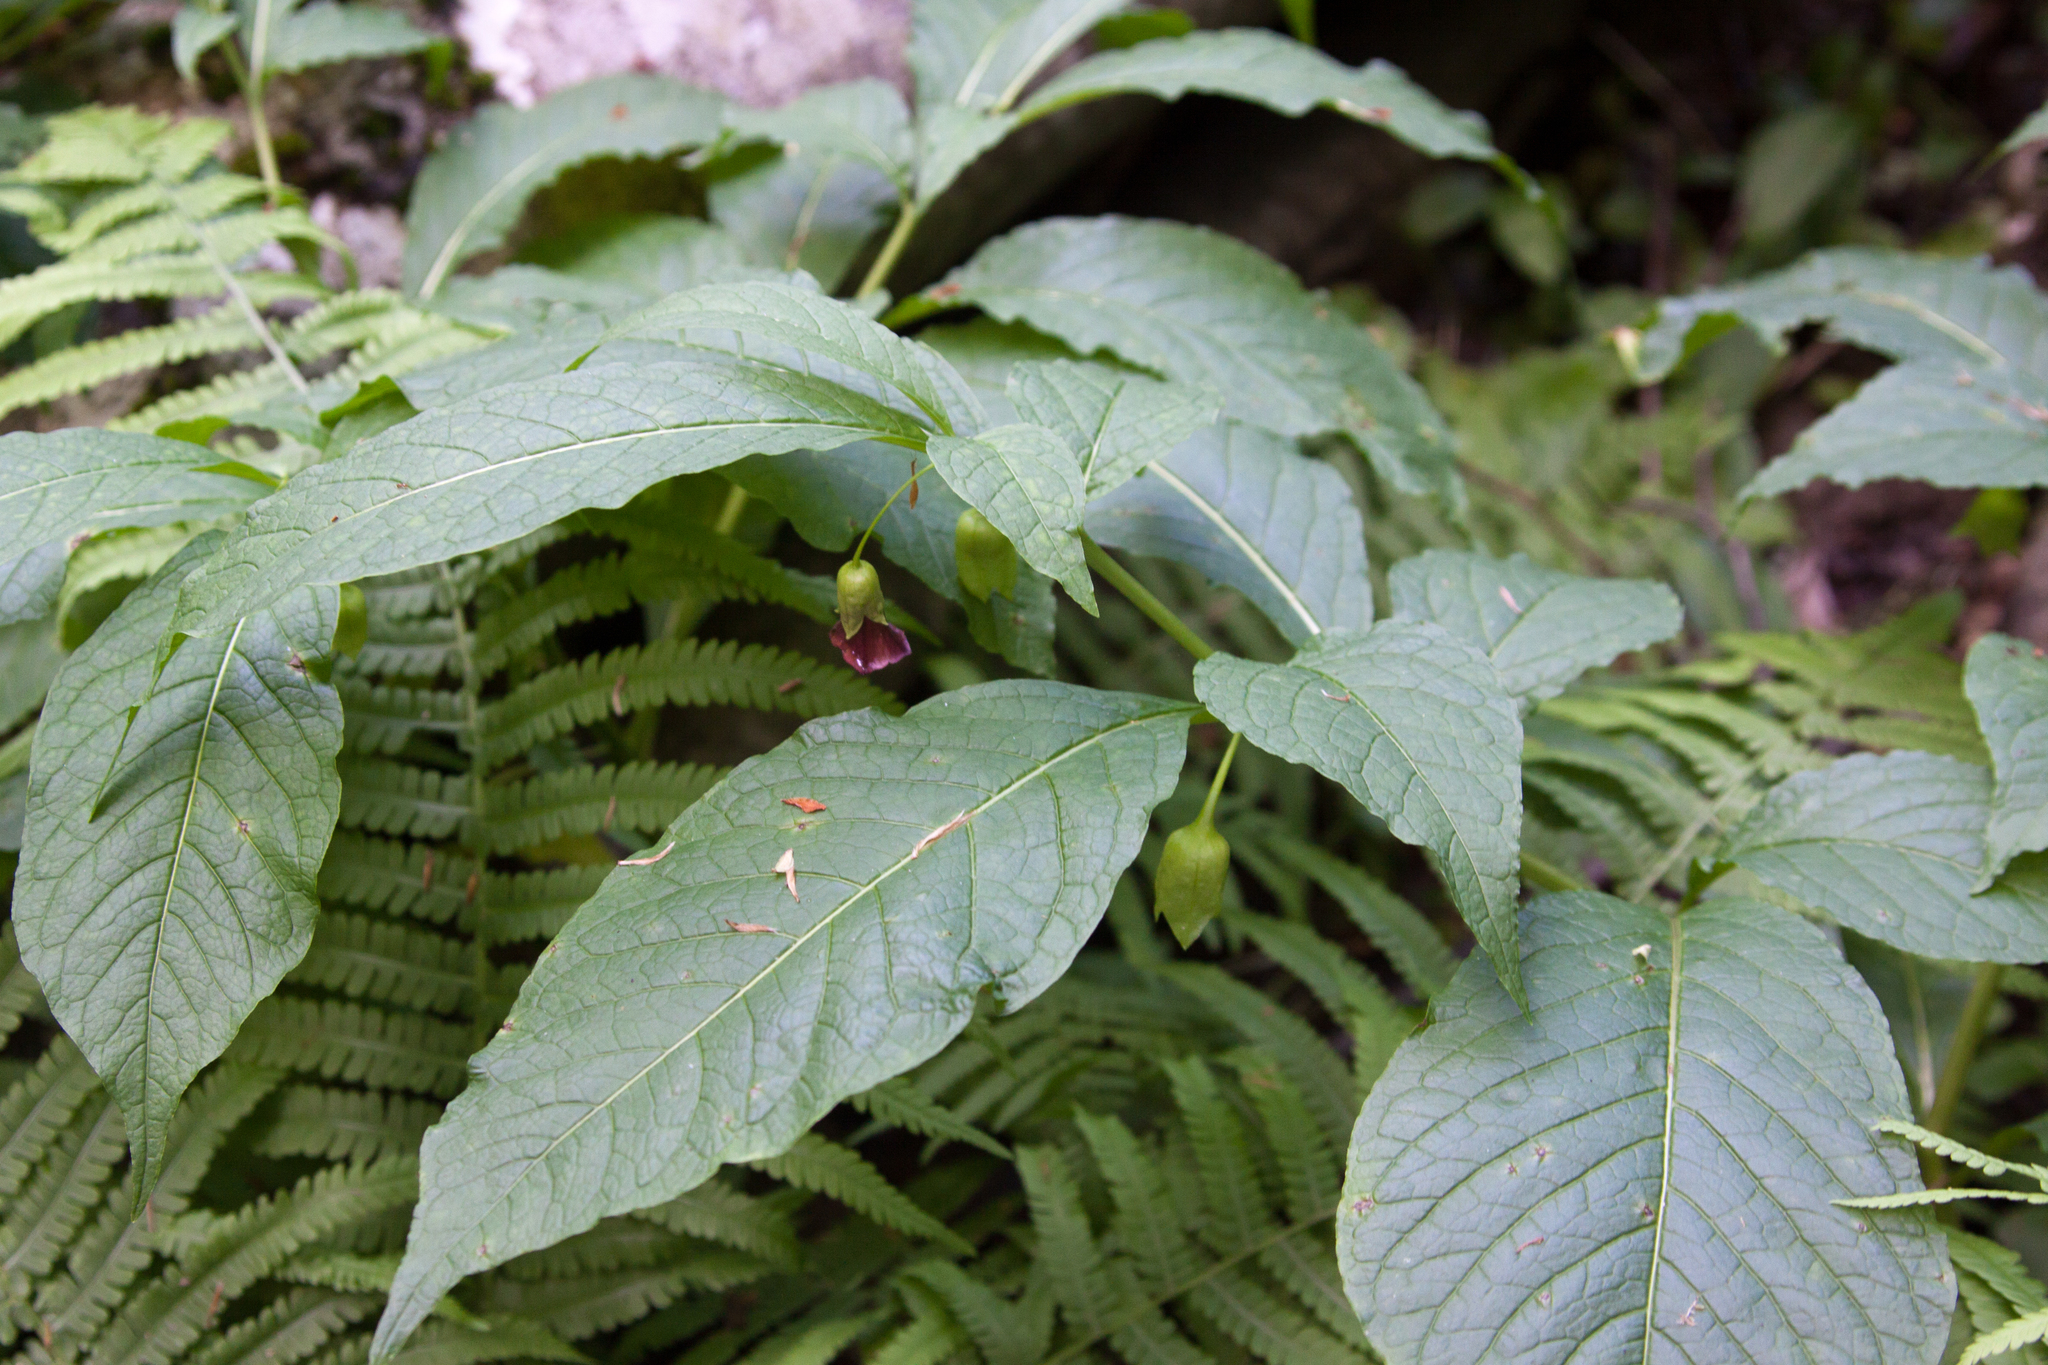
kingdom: Plantae
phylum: Tracheophyta
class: Magnoliopsida
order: Solanales
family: Solanaceae
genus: Scopolia
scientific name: Scopolia carniolica
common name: Scopolia
